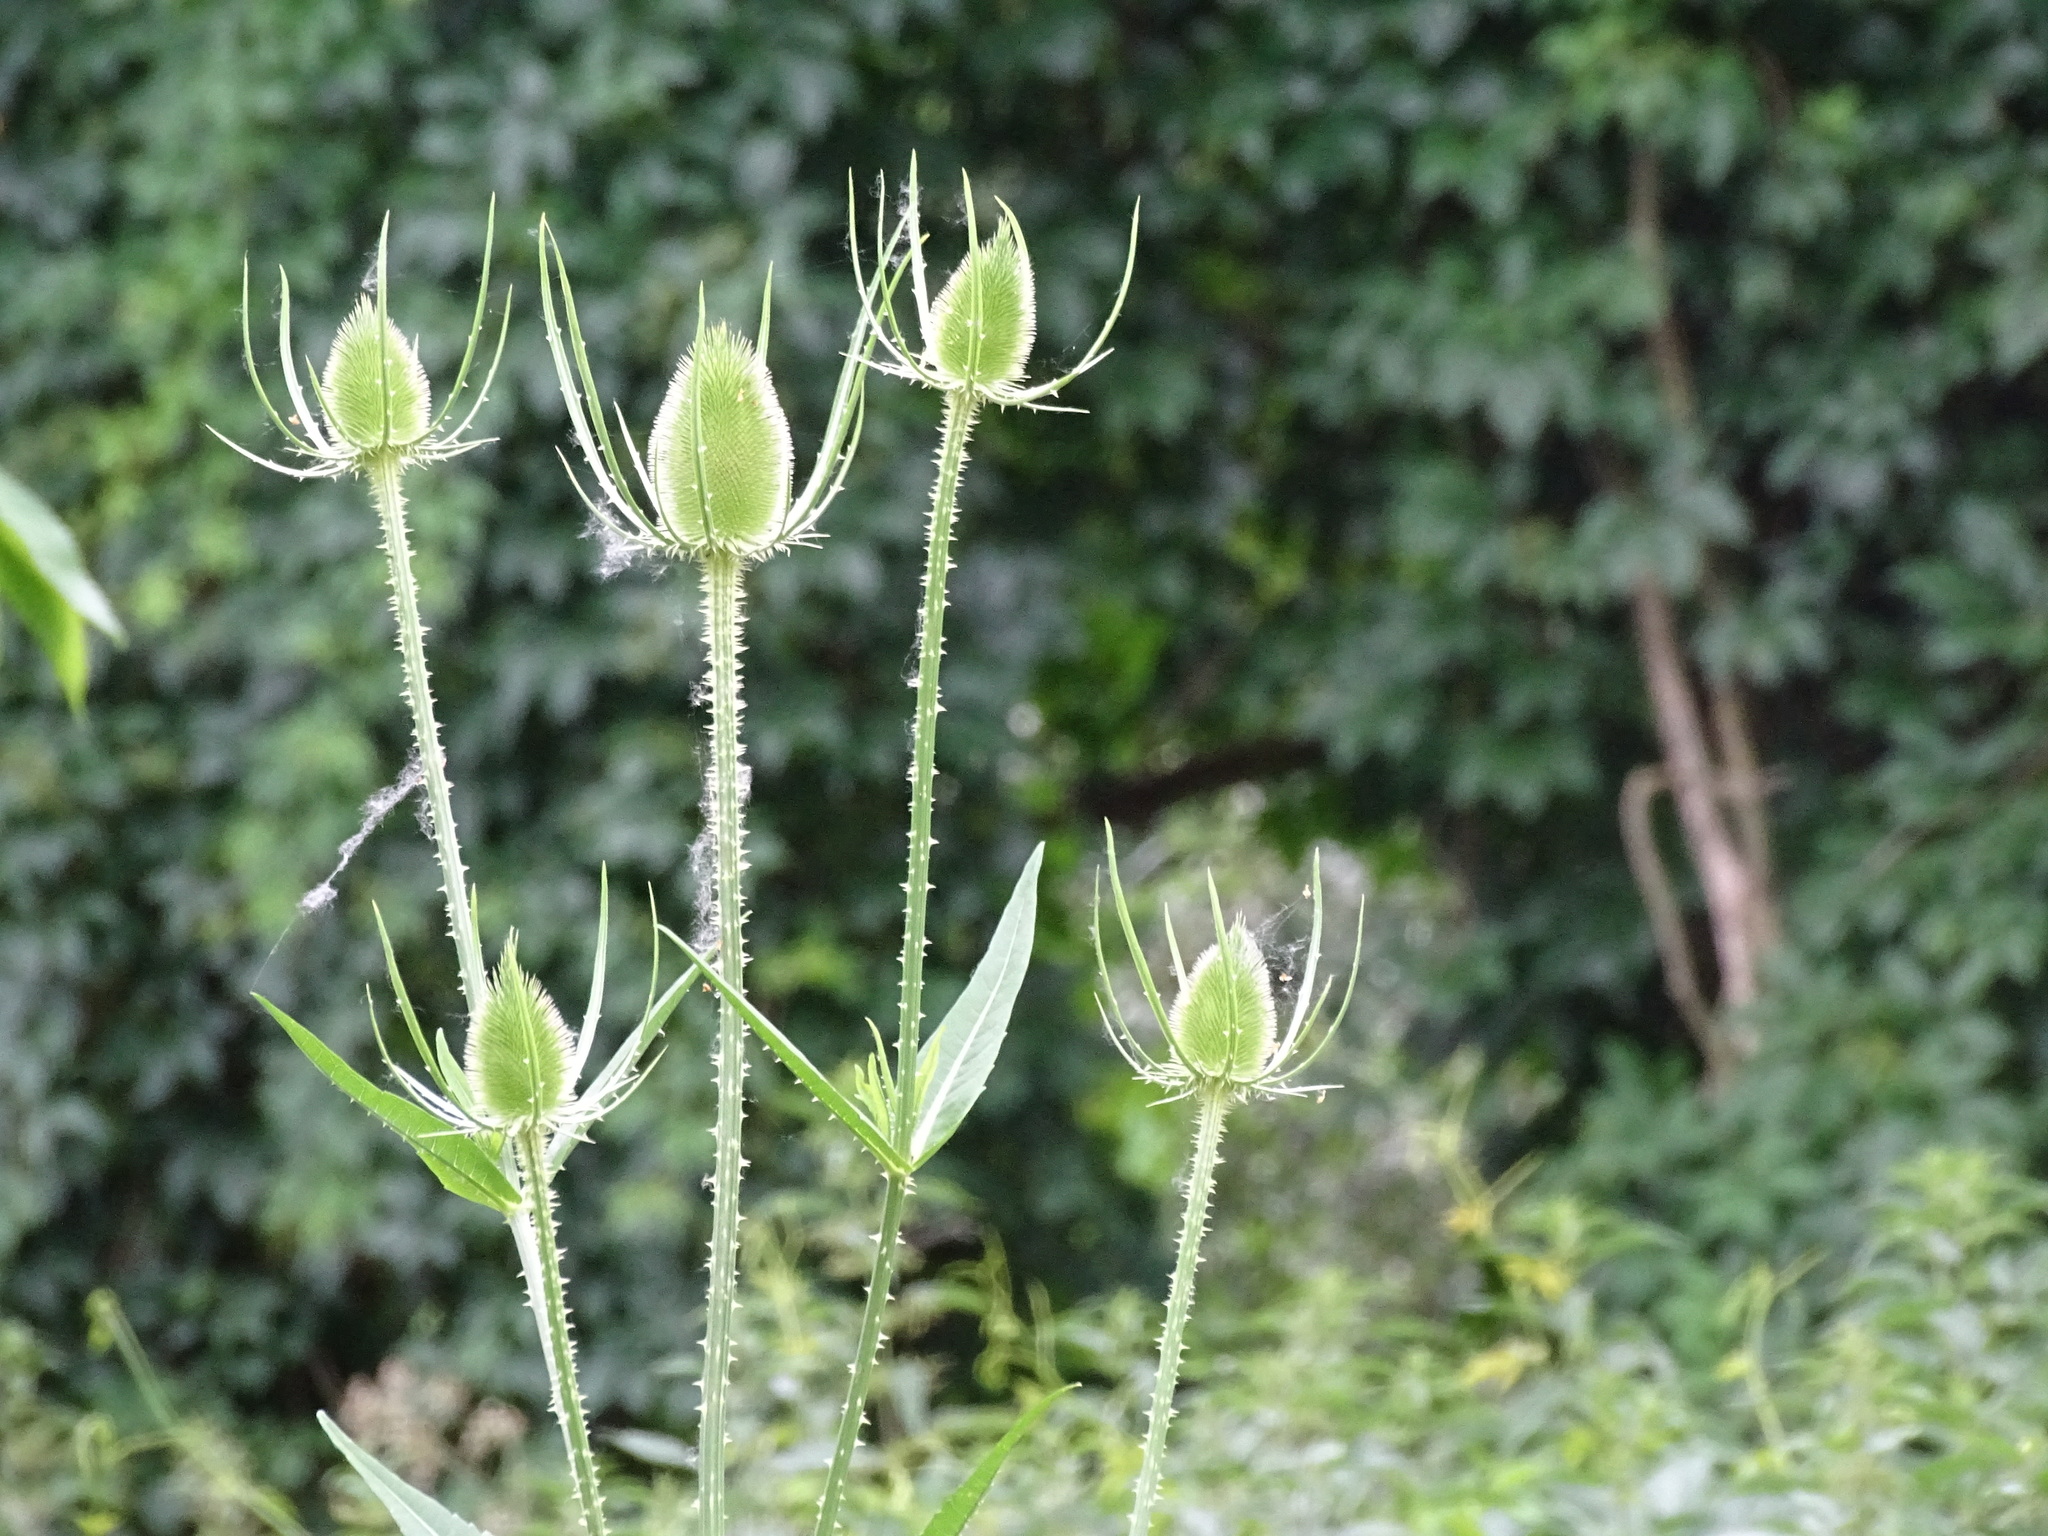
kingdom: Plantae
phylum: Tracheophyta
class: Magnoliopsida
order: Dipsacales
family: Caprifoliaceae
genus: Dipsacus
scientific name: Dipsacus fullonum
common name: Teasel
